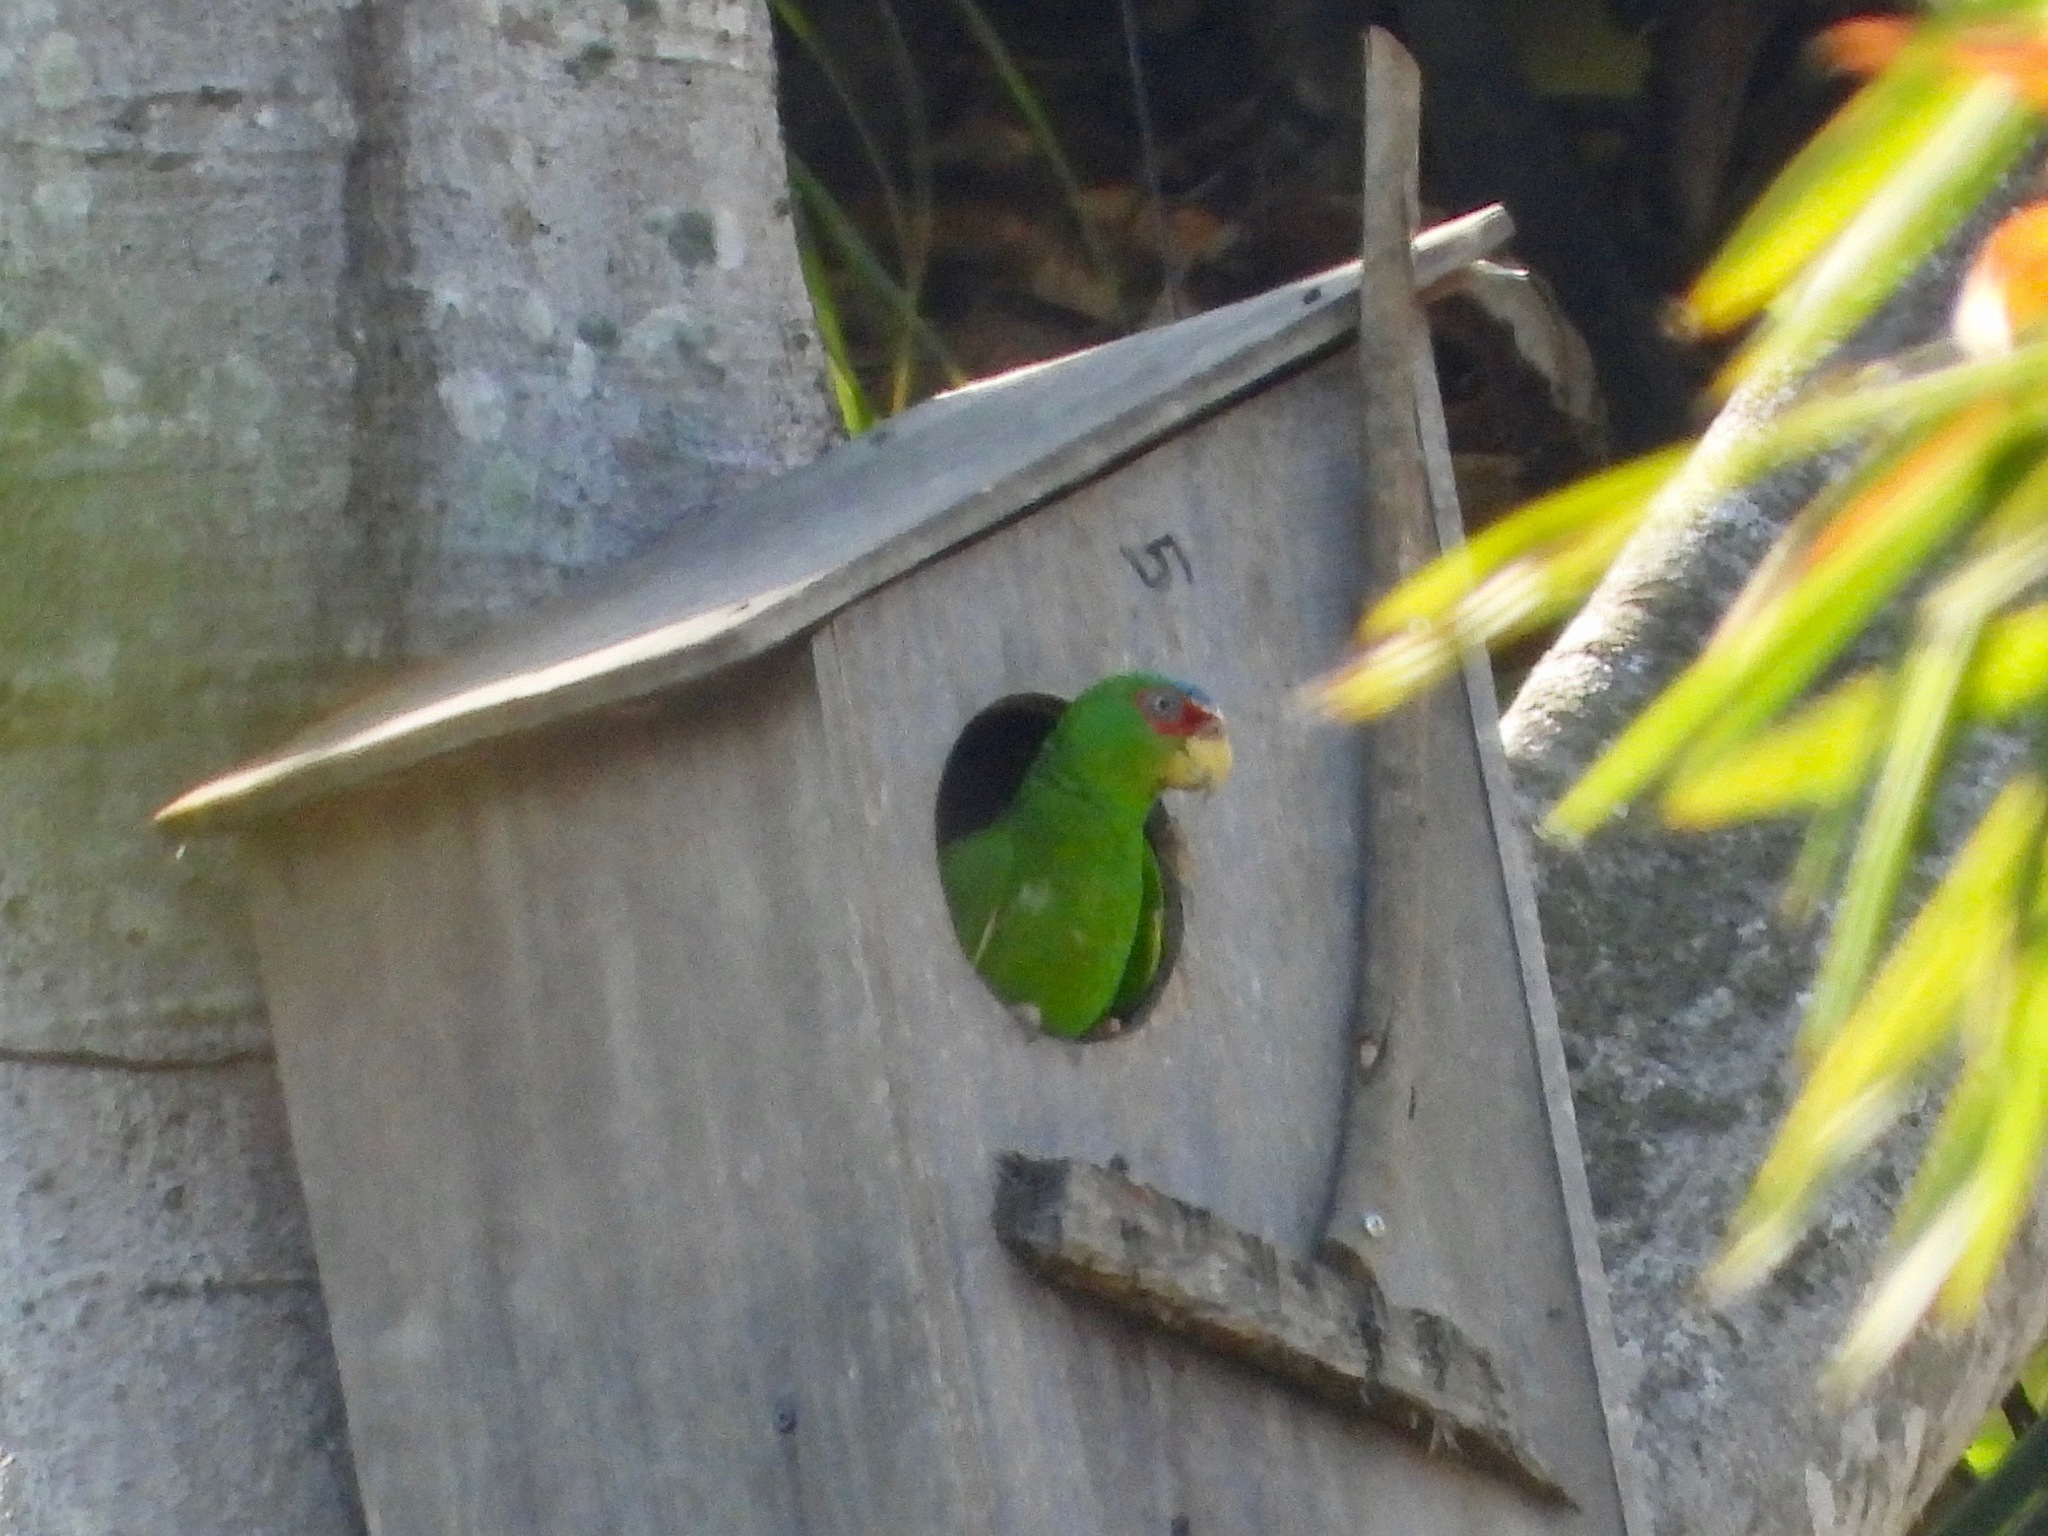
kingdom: Animalia
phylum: Chordata
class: Aves
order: Psittaciformes
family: Psittacidae
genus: Amazona
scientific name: Amazona albifrons
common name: White-fronted amazon
